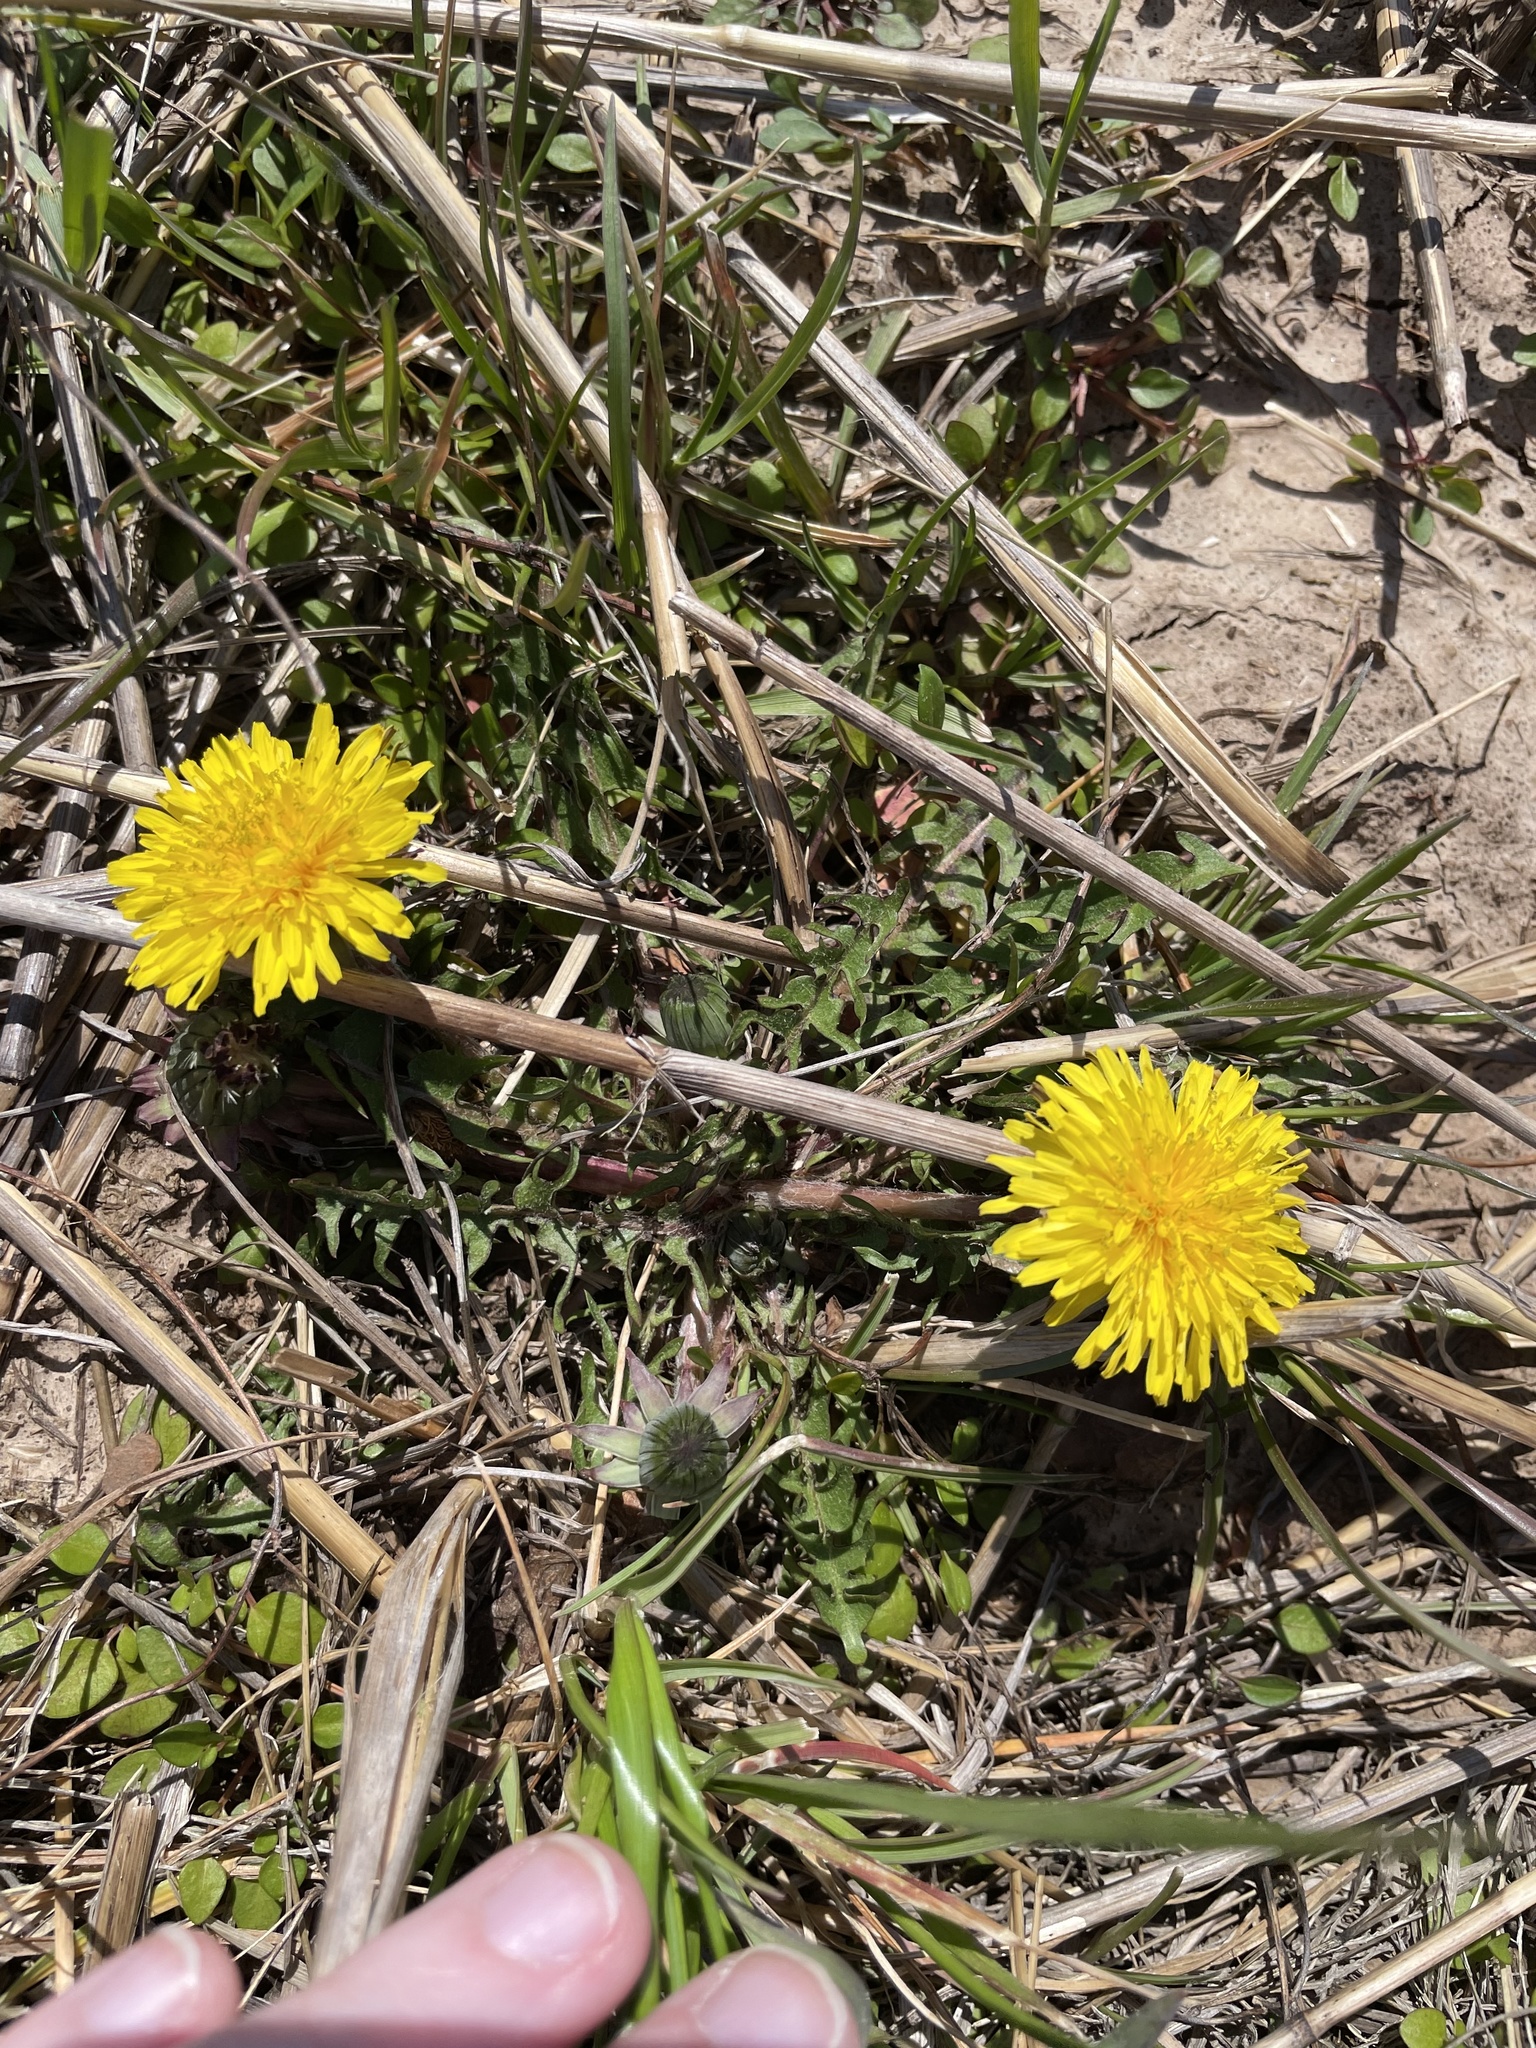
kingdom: Plantae
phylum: Tracheophyta
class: Magnoliopsida
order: Asterales
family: Asteraceae
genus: Taraxacum
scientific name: Taraxacum
